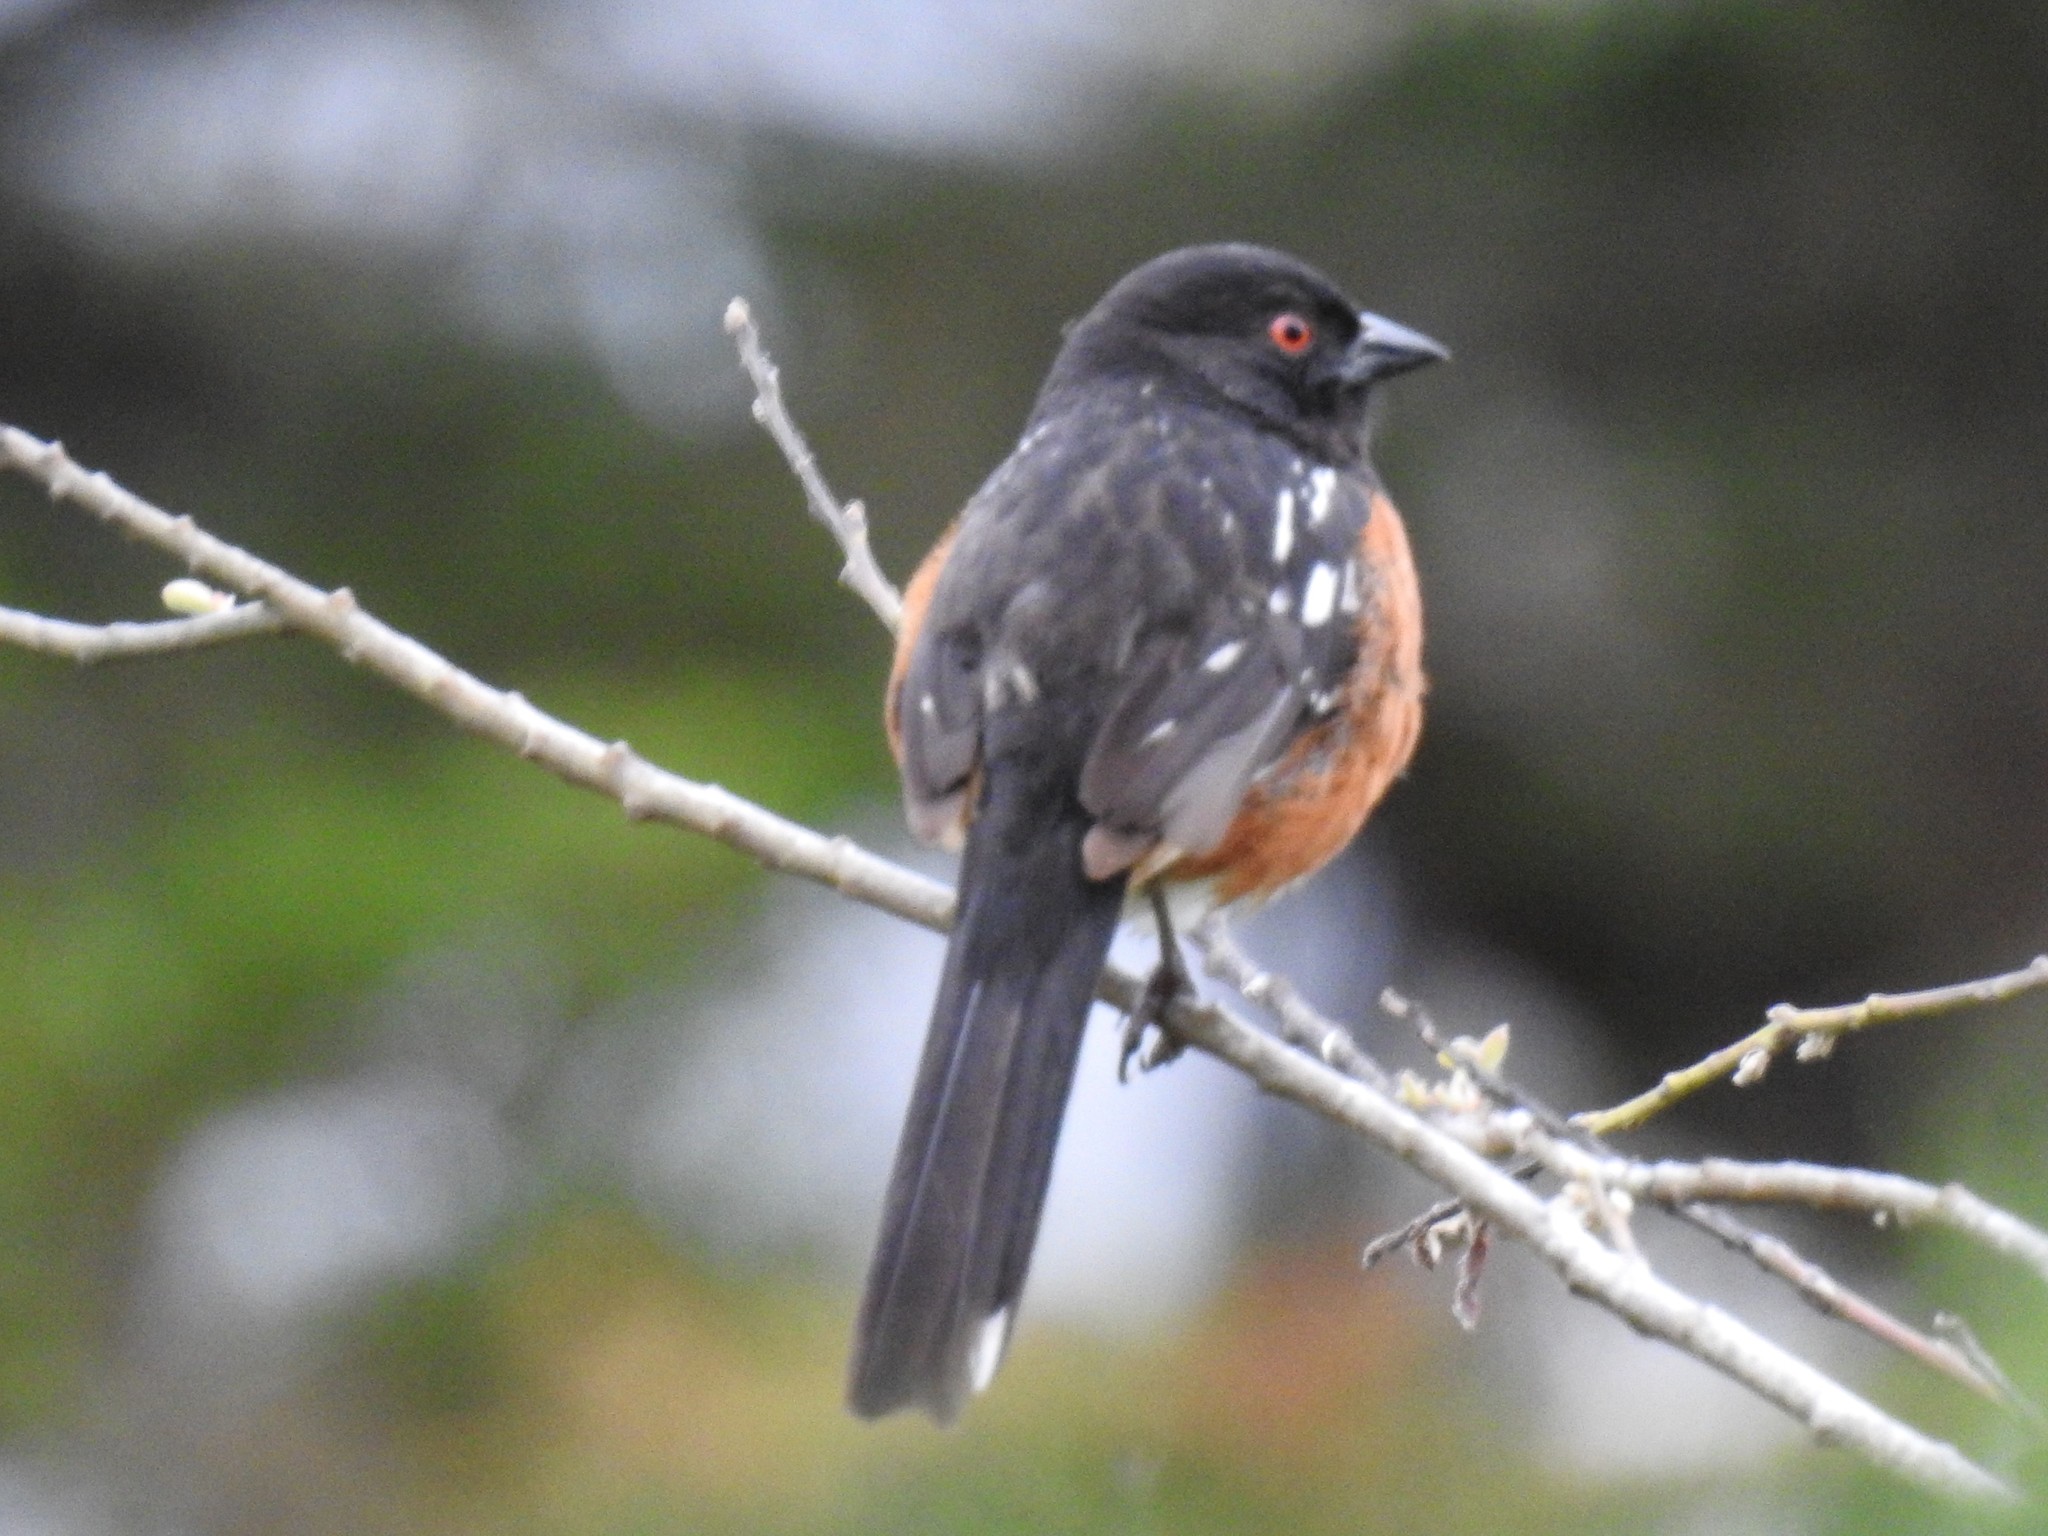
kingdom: Animalia
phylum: Chordata
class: Aves
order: Passeriformes
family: Passerellidae
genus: Pipilo
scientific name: Pipilo maculatus
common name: Spotted towhee
